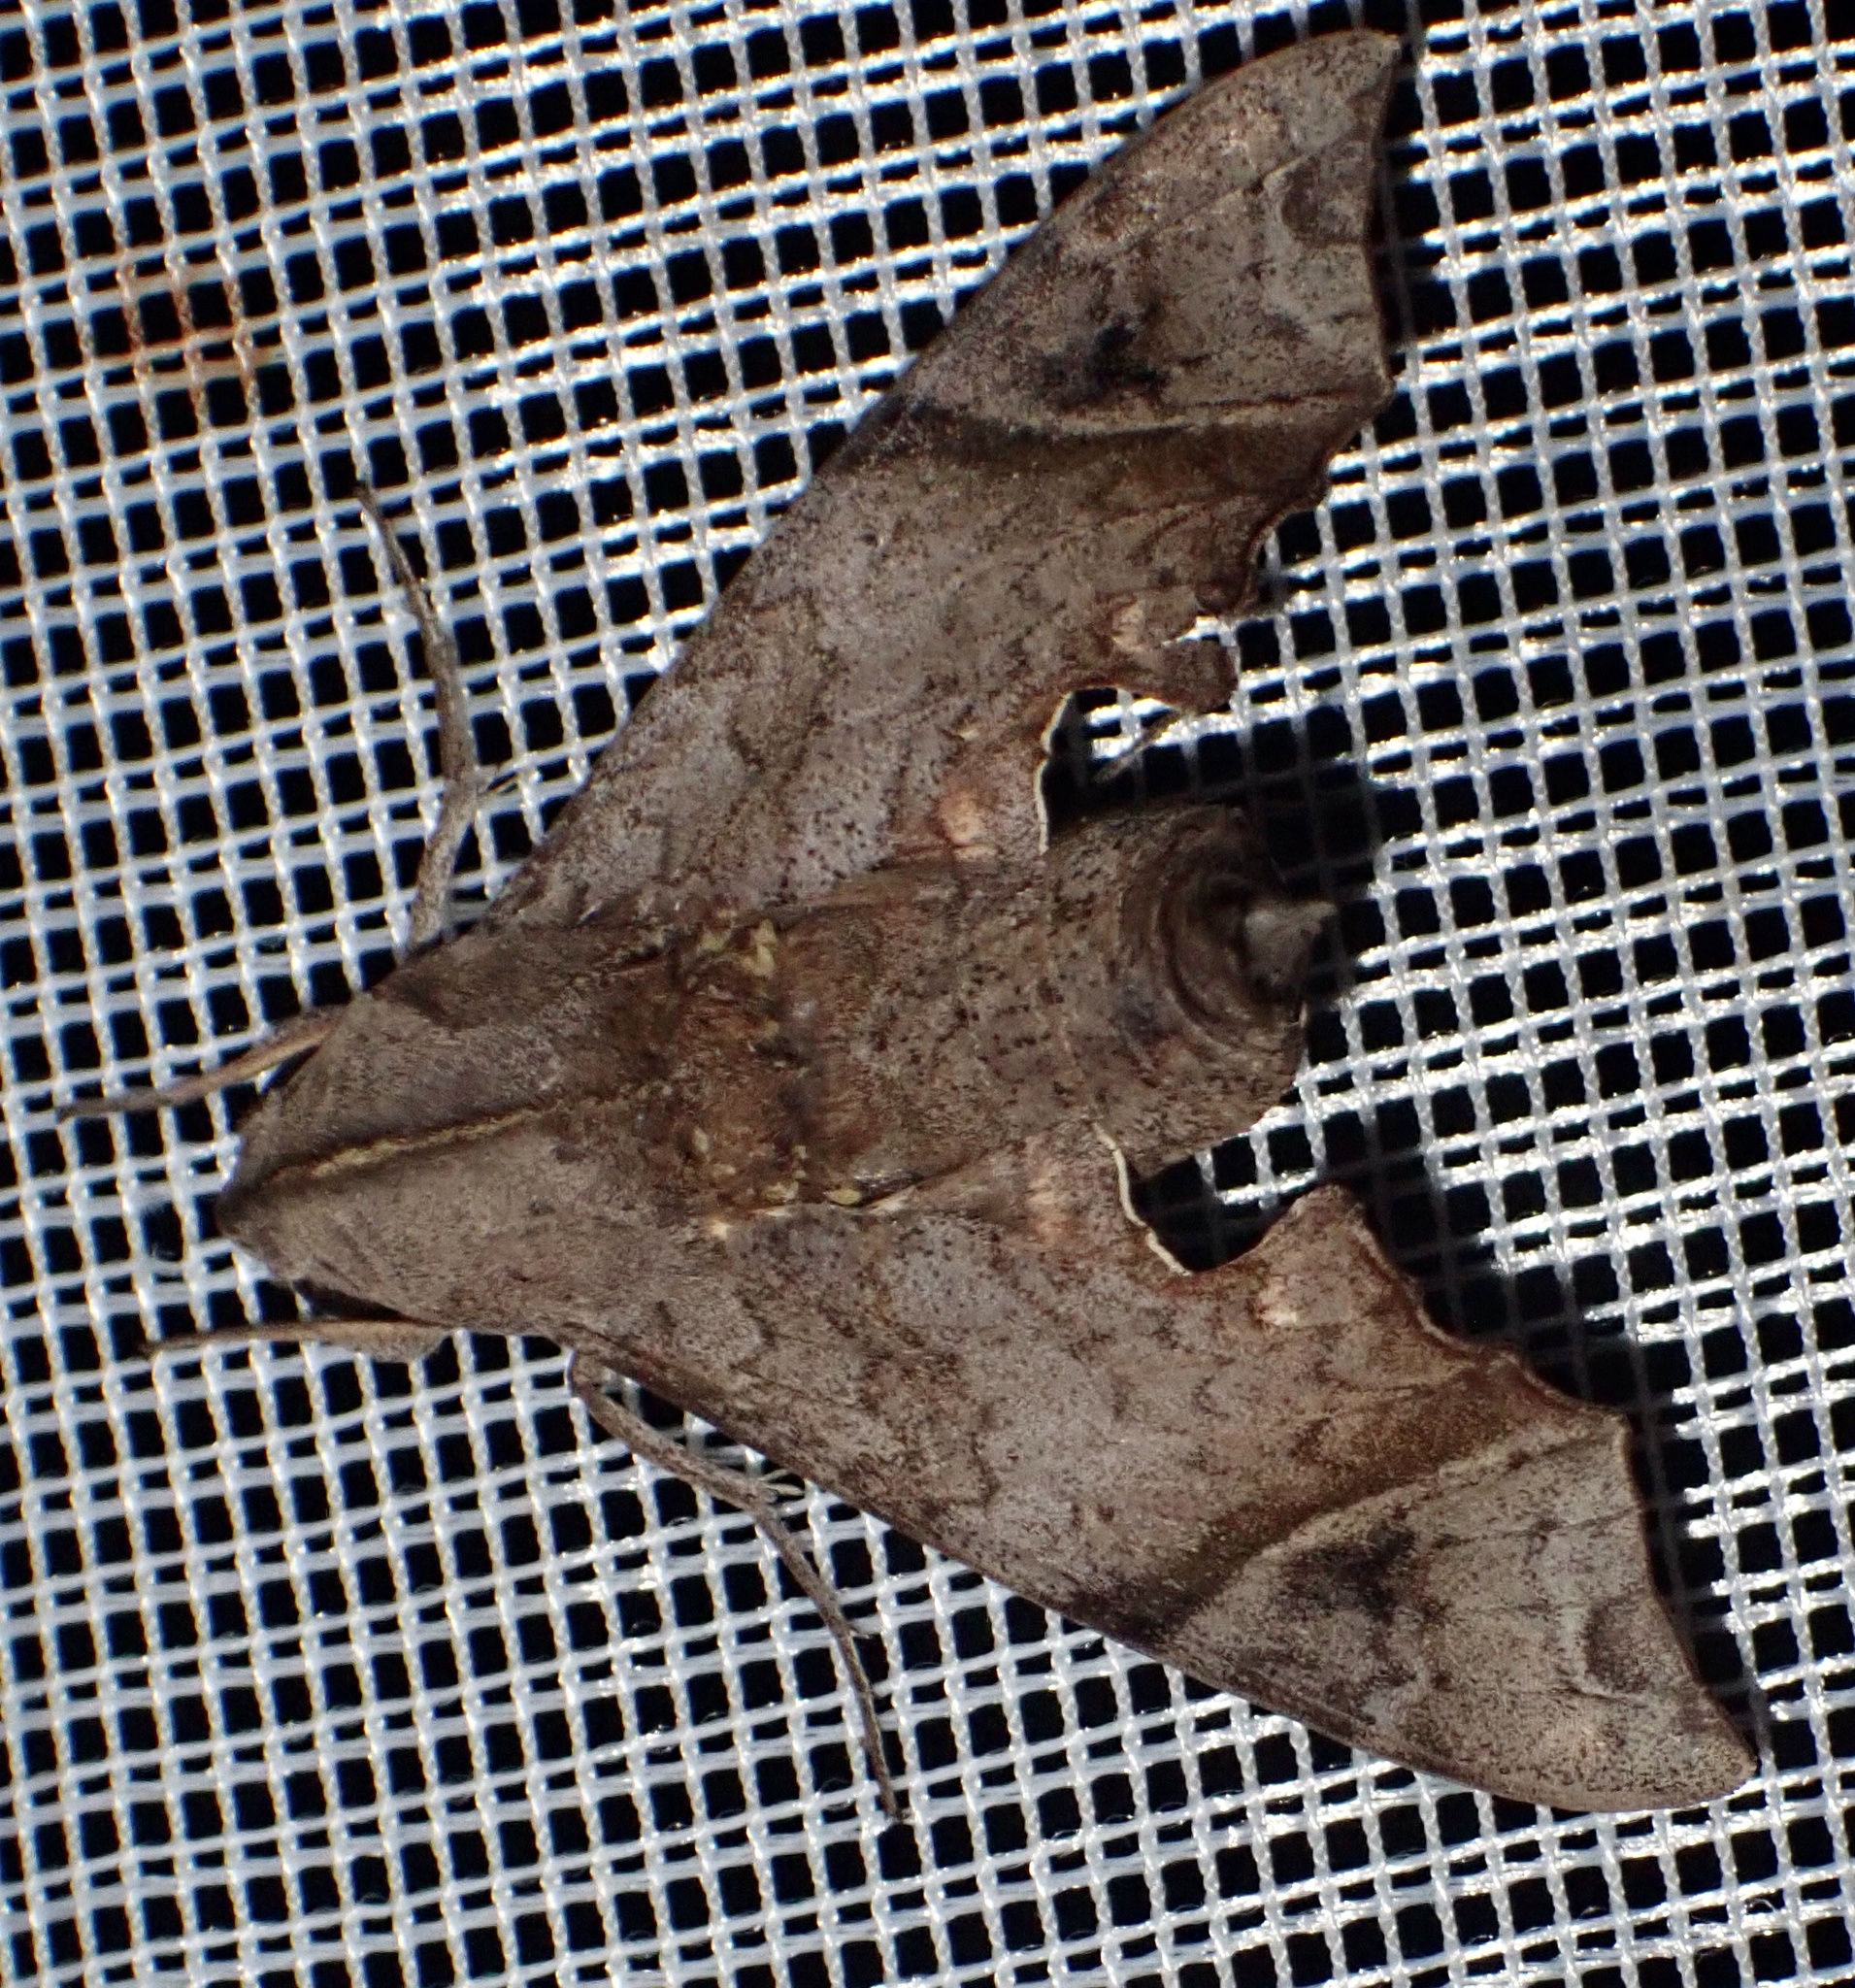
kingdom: Animalia
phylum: Arthropoda
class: Insecta
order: Lepidoptera
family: Sphingidae
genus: Temnora
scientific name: Temnora crenulata
